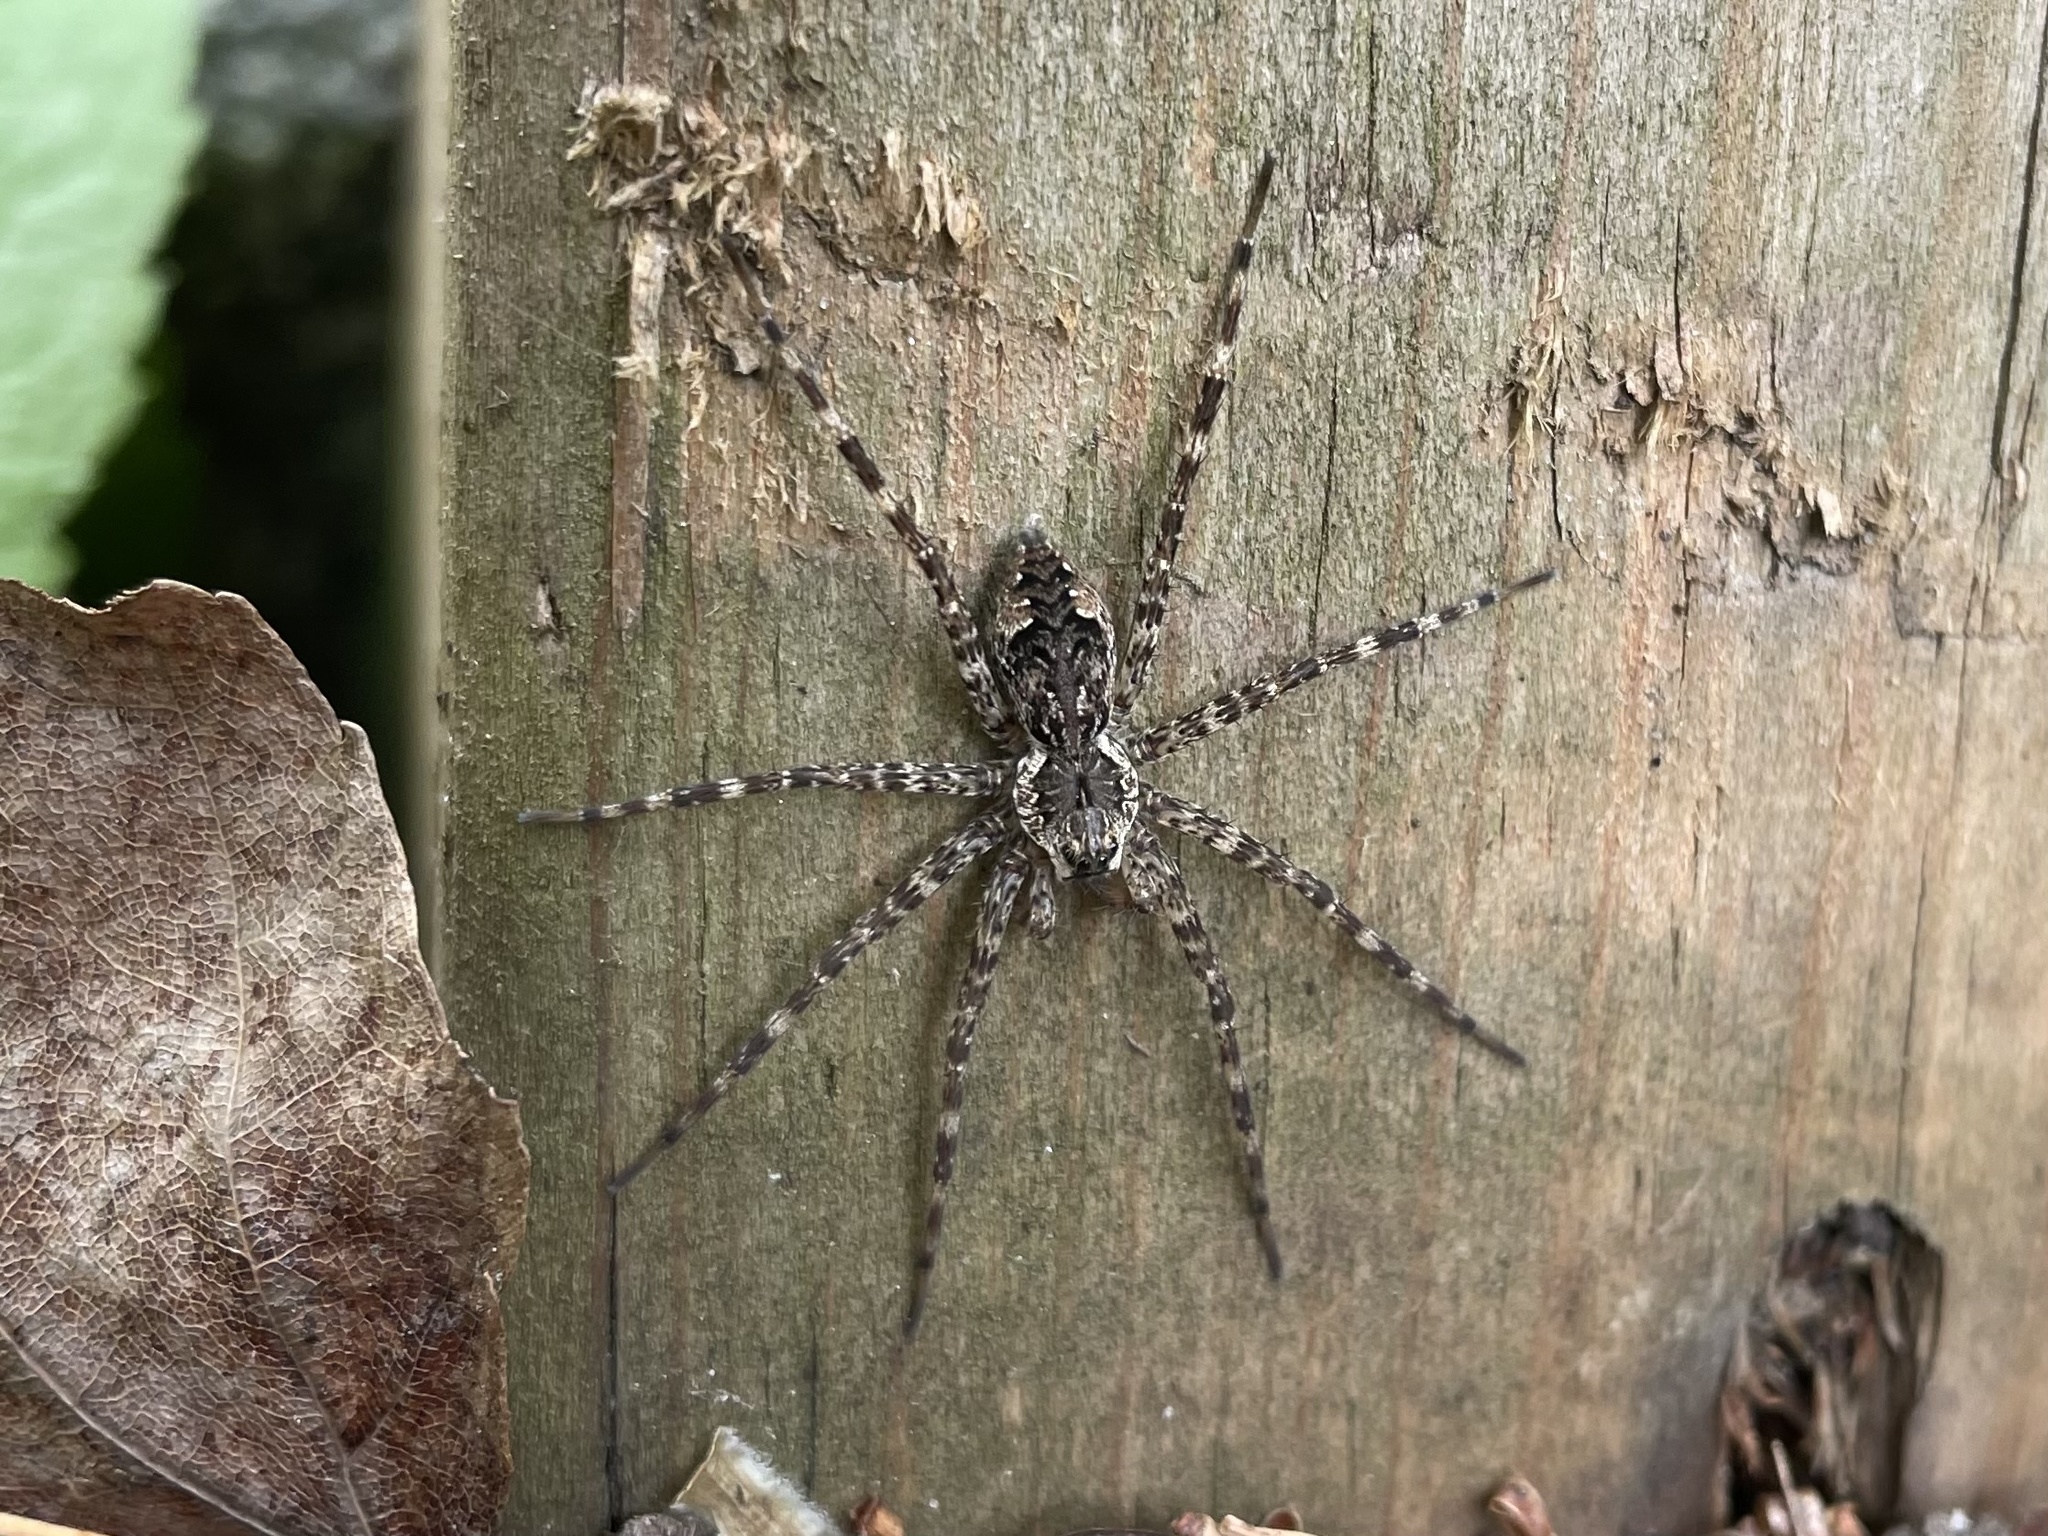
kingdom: Animalia
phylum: Arthropoda
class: Arachnida
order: Araneae
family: Pisauridae
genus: Dolomedes
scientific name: Dolomedes tenebrosus
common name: Dark fishing spider
